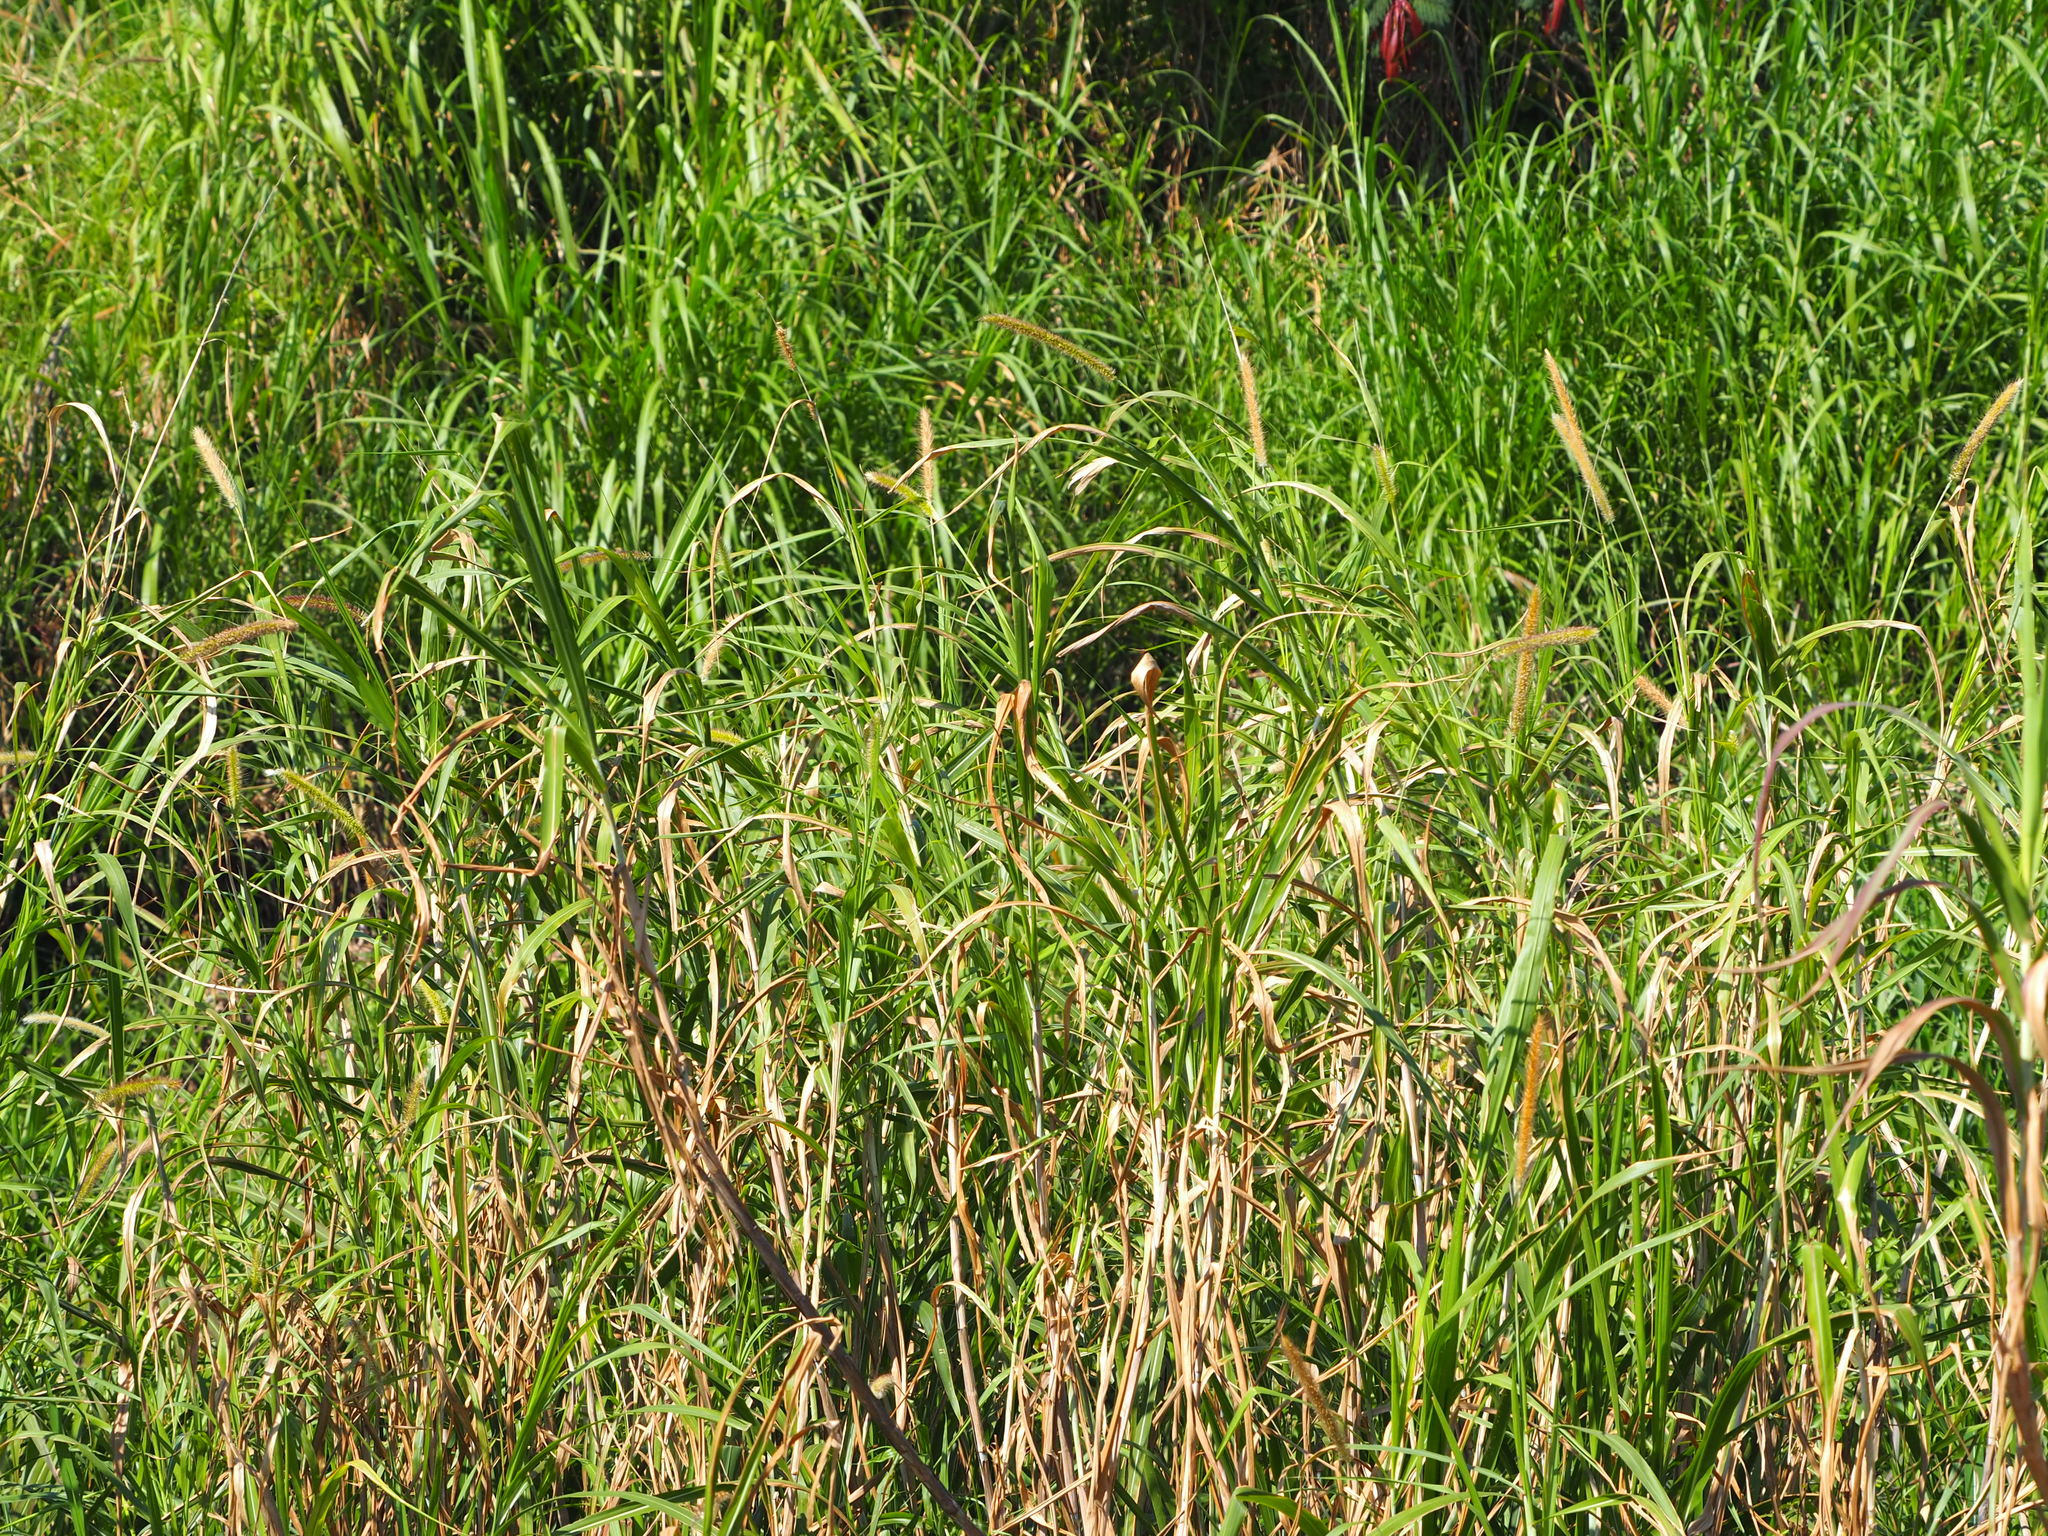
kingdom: Plantae
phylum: Tracheophyta
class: Liliopsida
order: Poales
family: Poaceae
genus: Cenchrus
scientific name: Cenchrus purpureus
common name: Elephant grass
